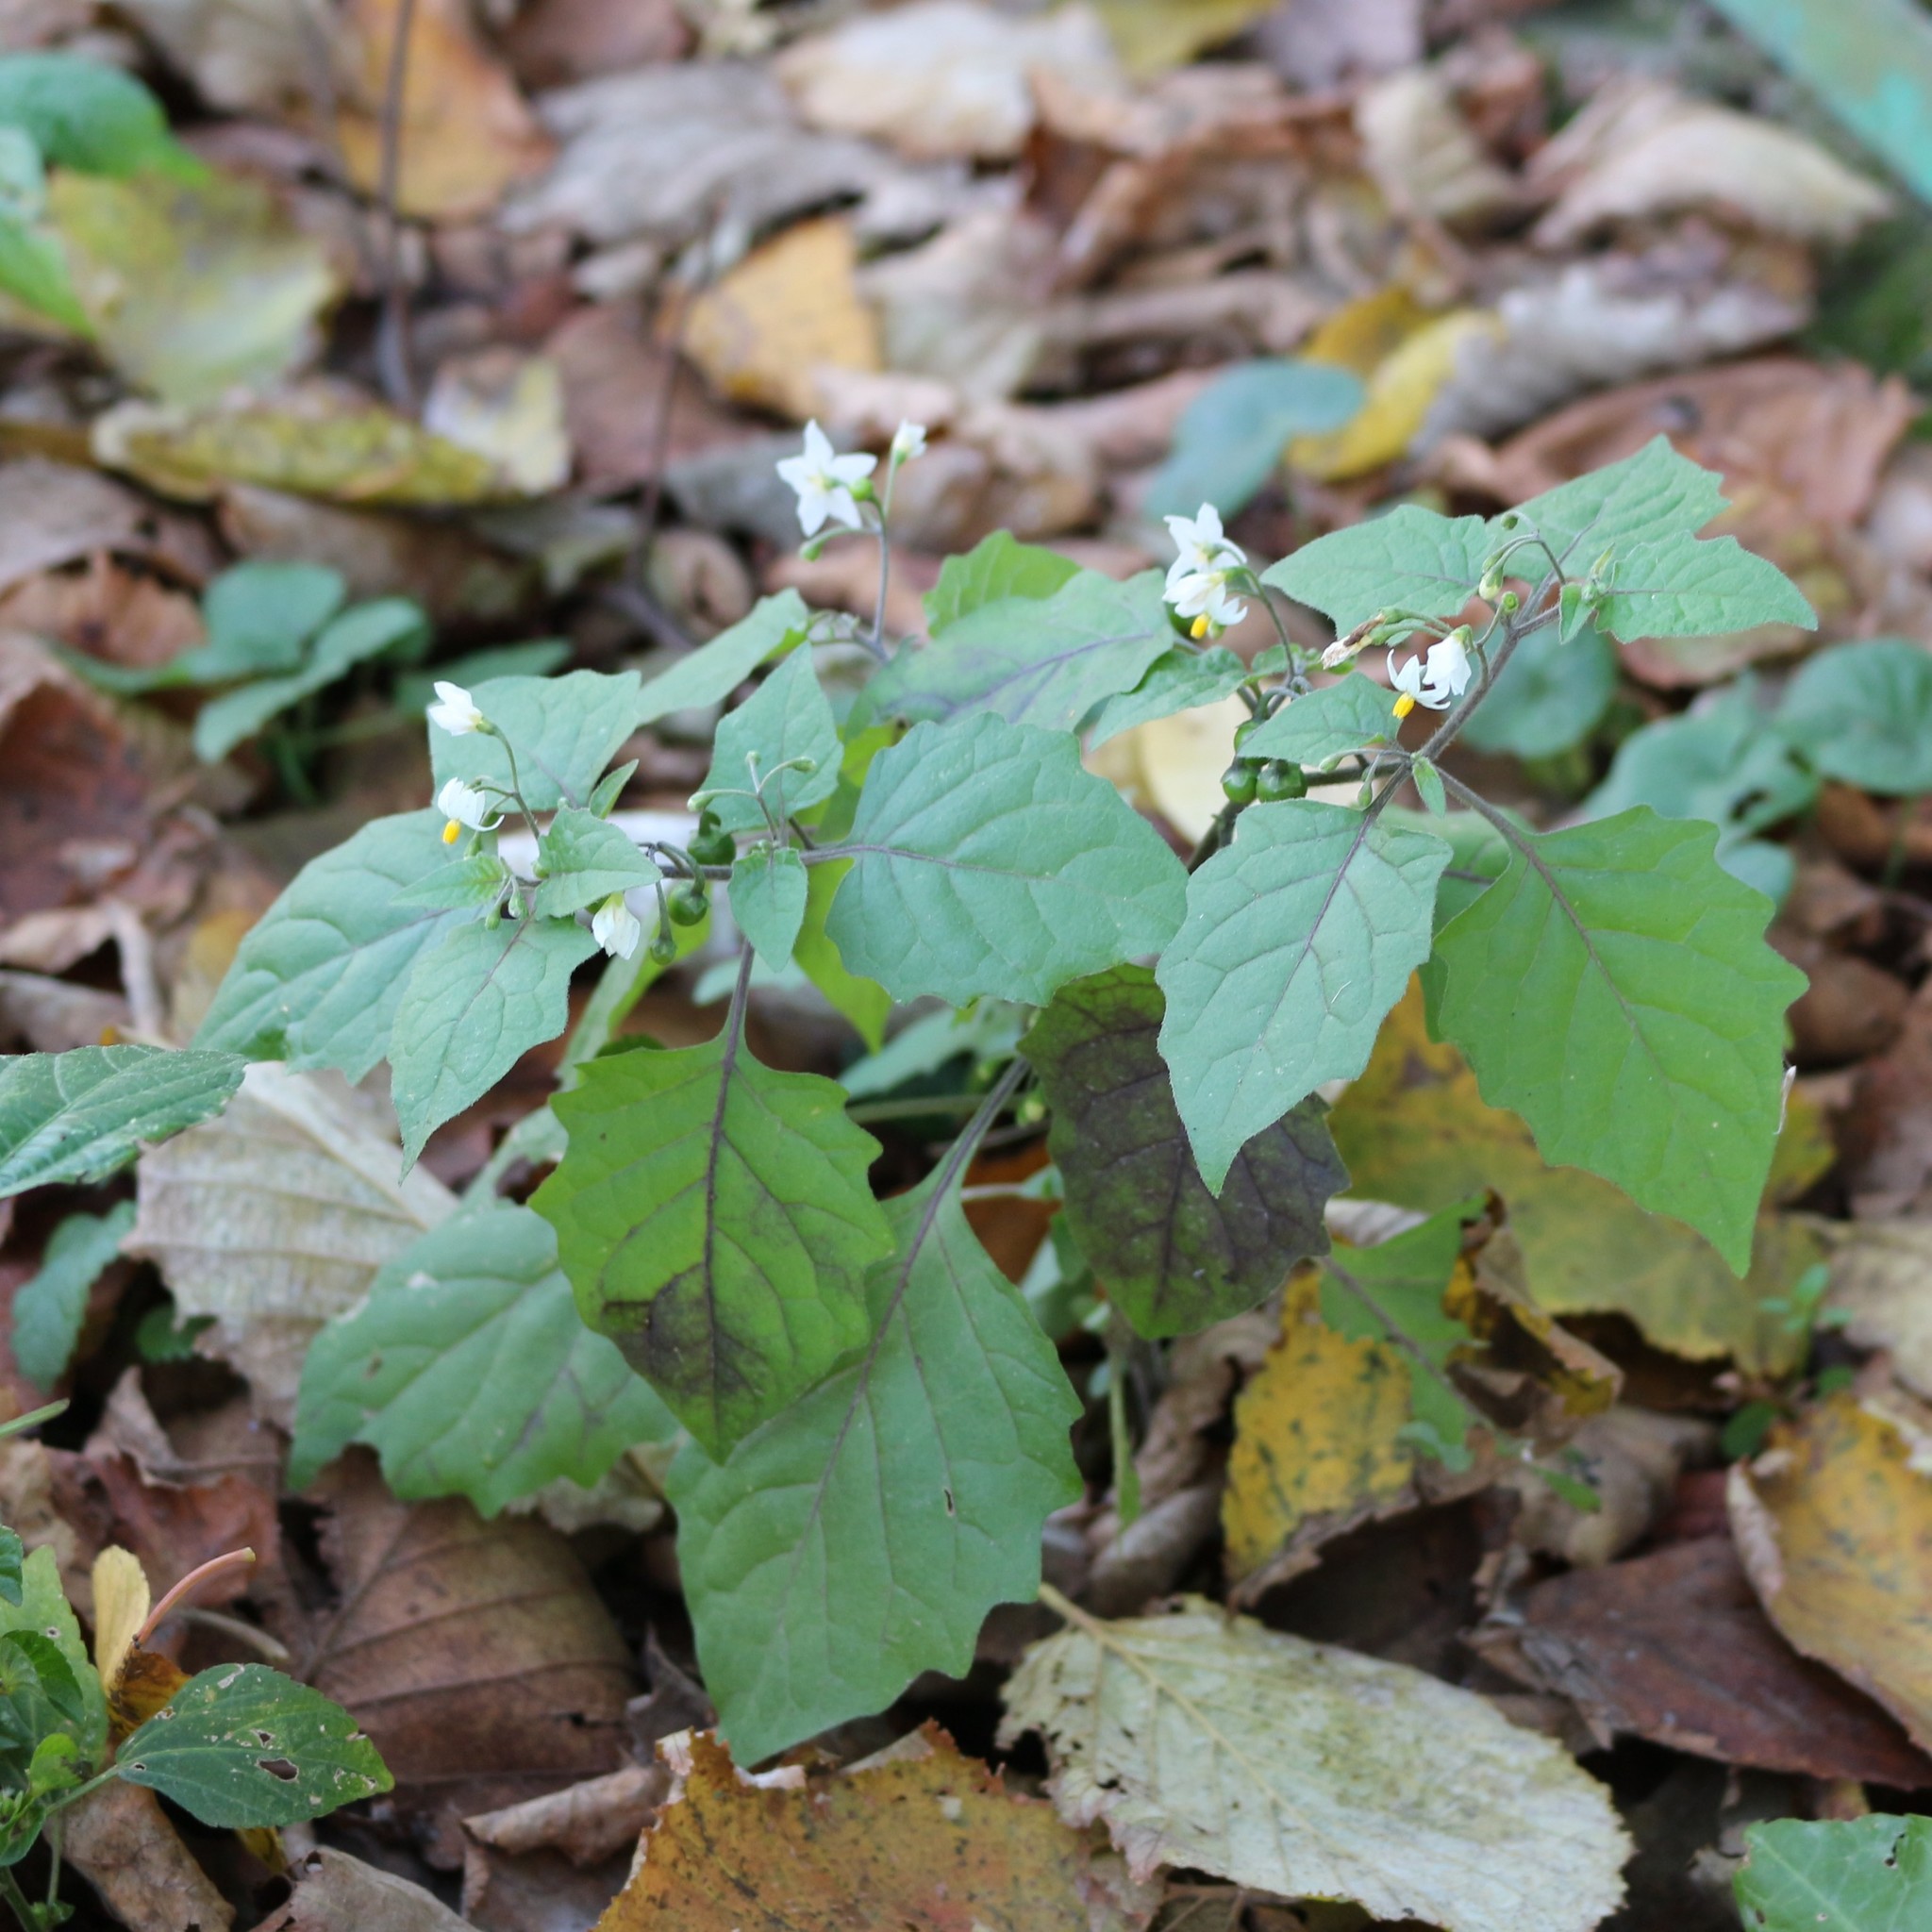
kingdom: Plantae
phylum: Tracheophyta
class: Magnoliopsida
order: Solanales
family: Solanaceae
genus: Solanum
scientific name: Solanum nigrum
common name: Black nightshade
